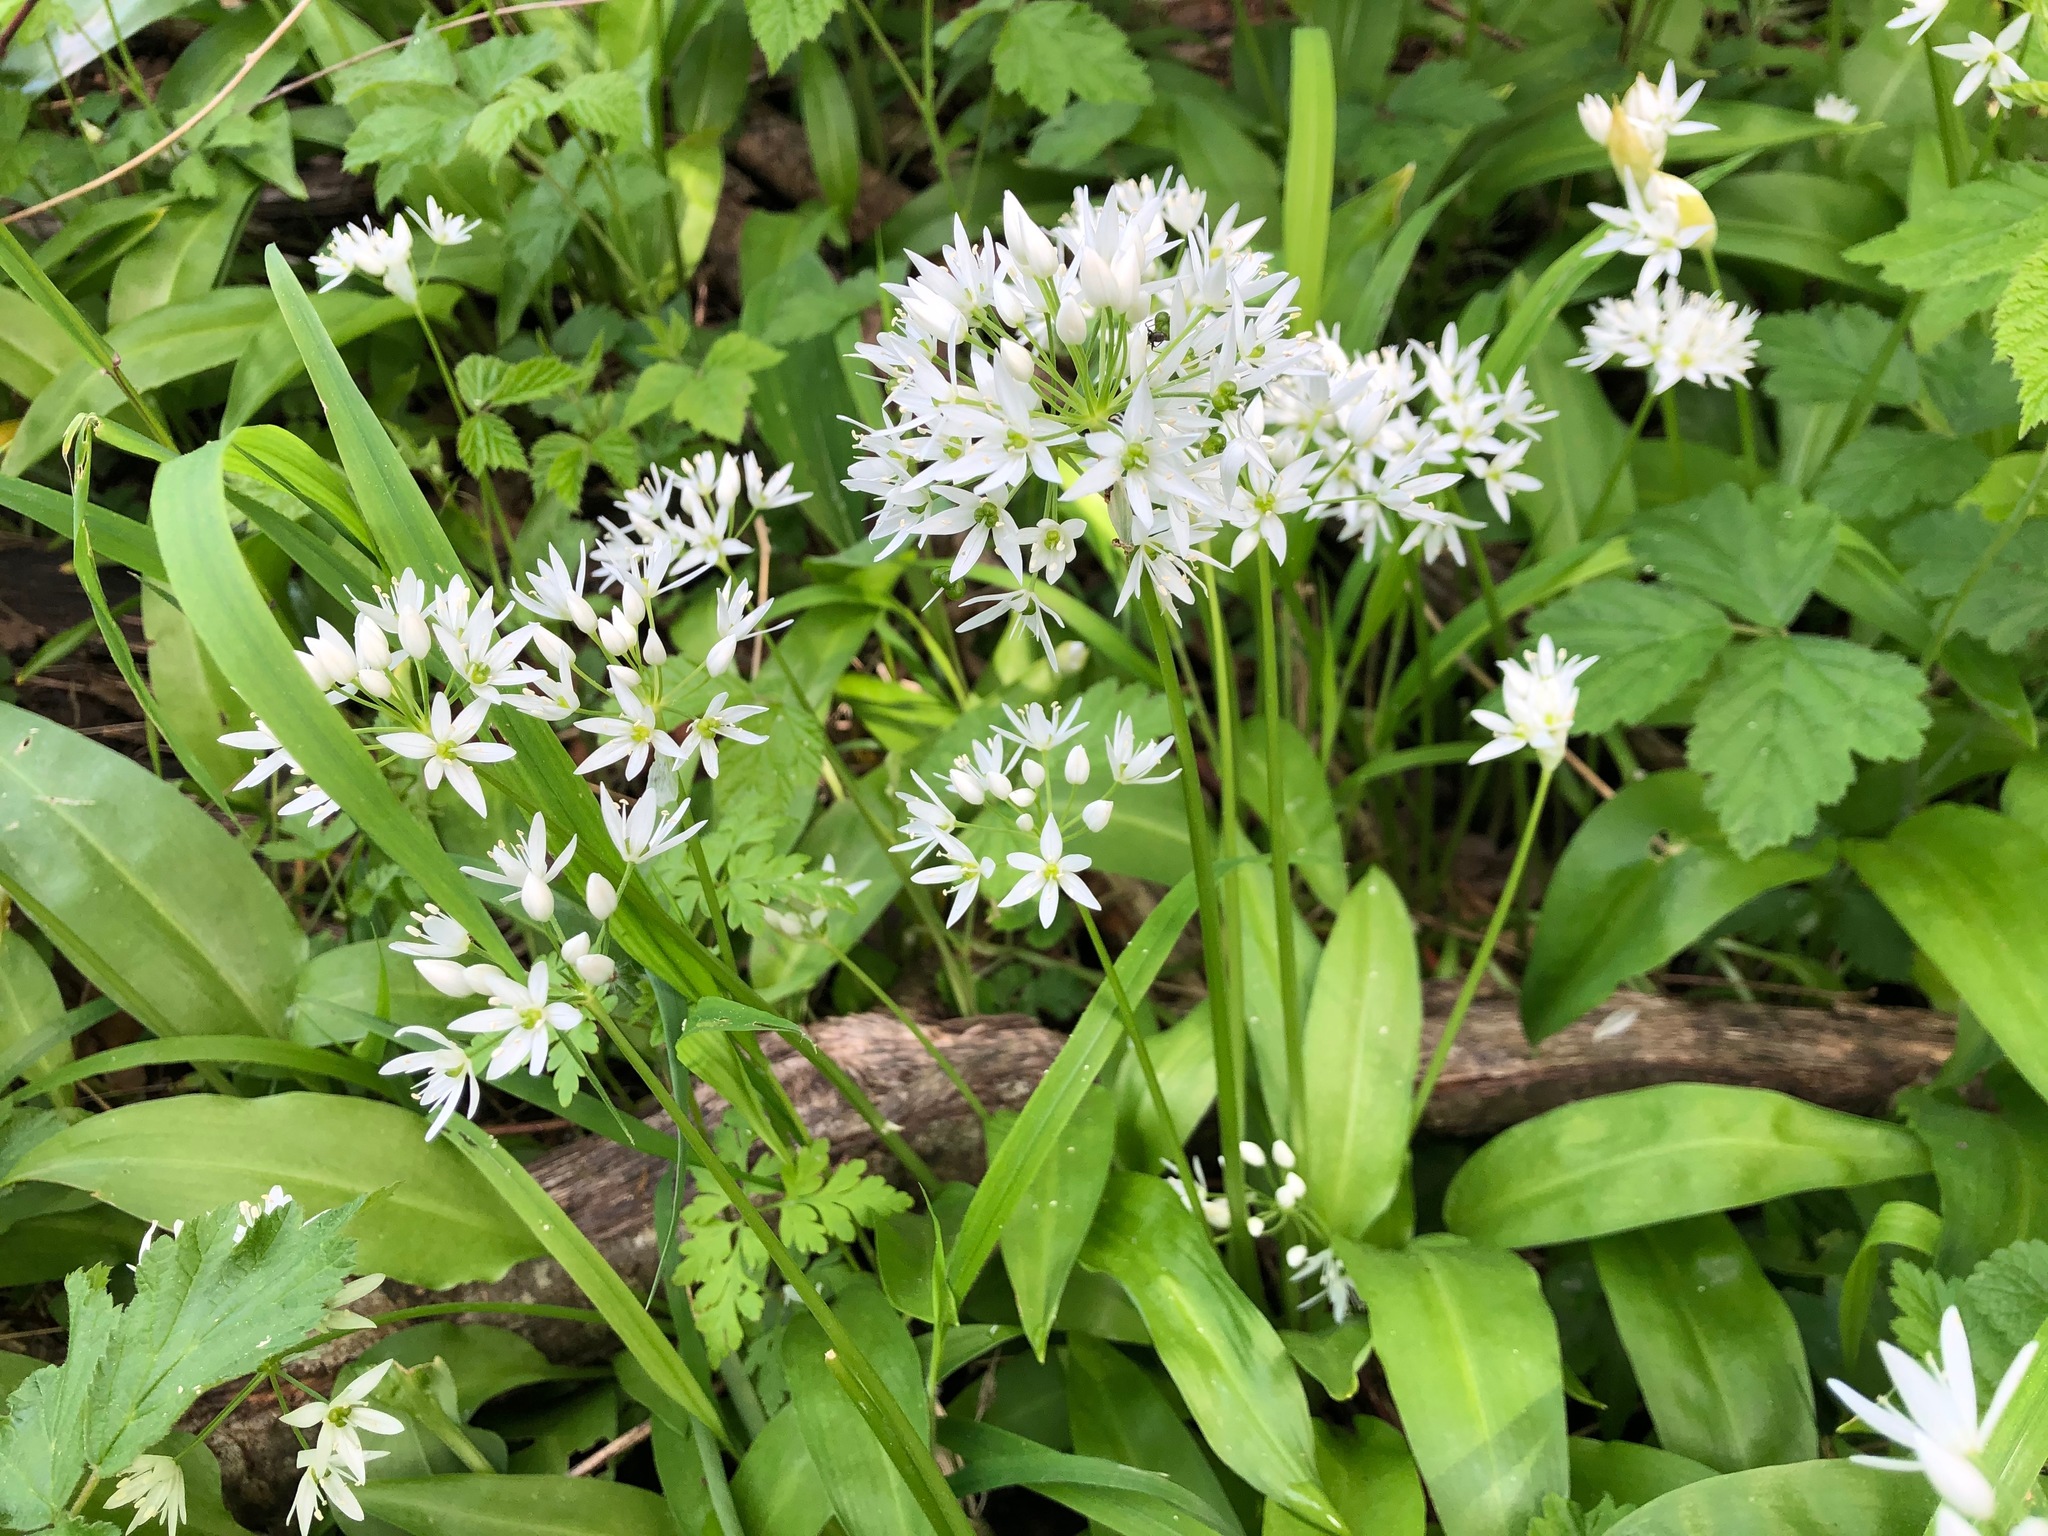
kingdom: Plantae
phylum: Tracheophyta
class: Liliopsida
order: Asparagales
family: Amaryllidaceae
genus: Allium
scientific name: Allium ursinum
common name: Ramsons
